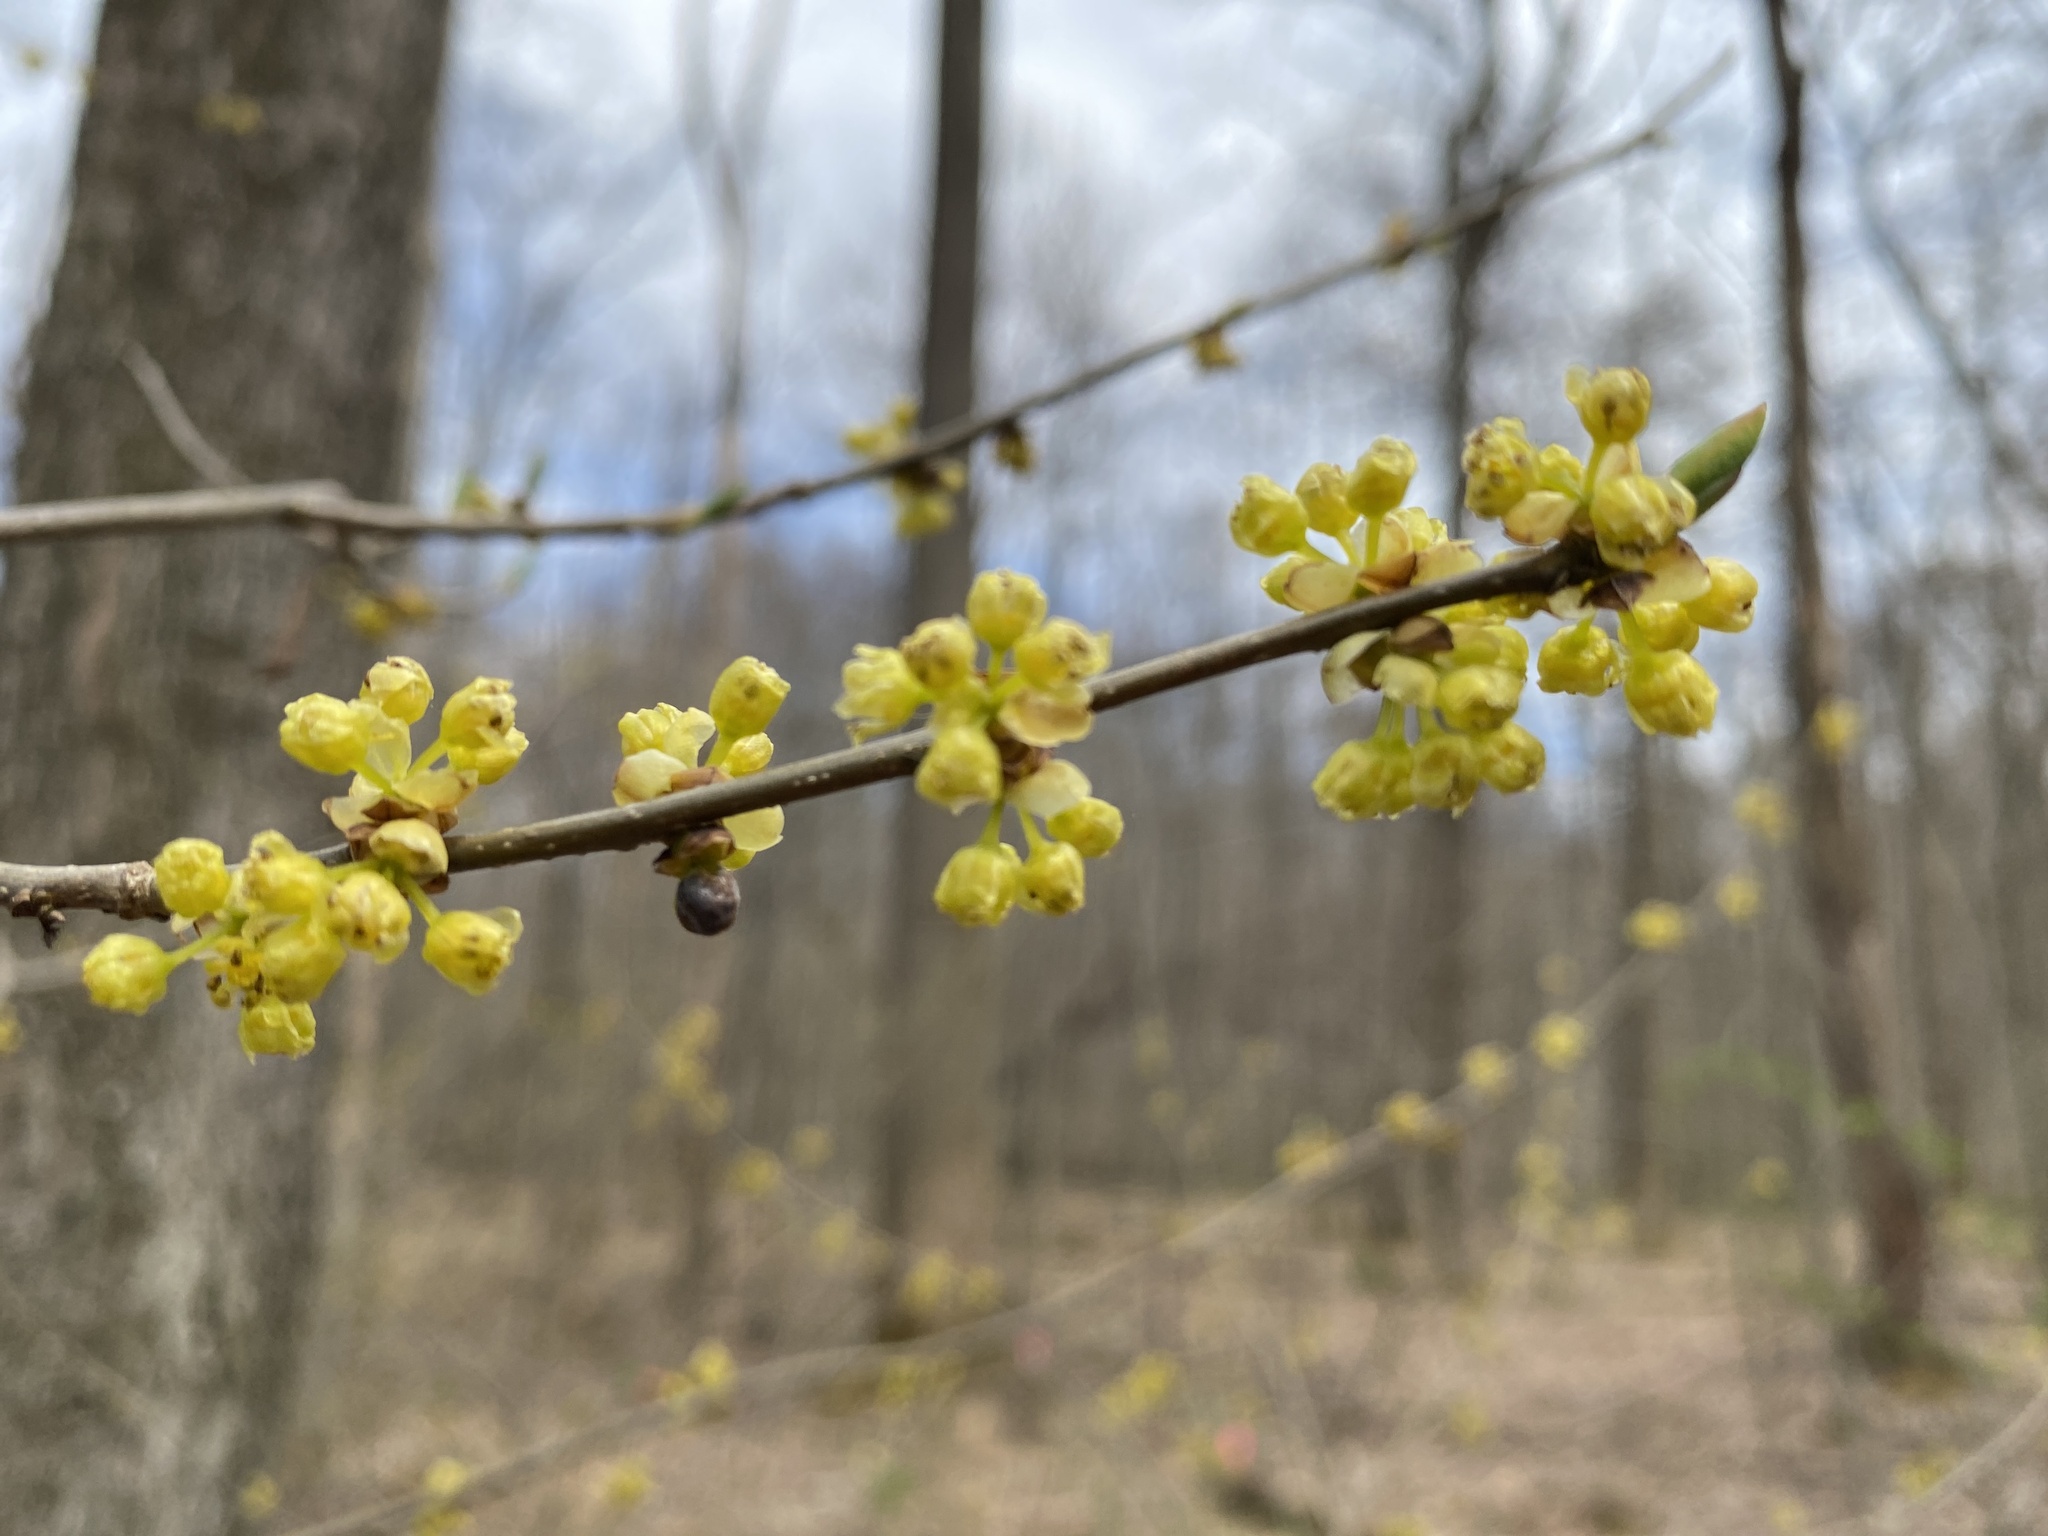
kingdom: Plantae
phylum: Tracheophyta
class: Magnoliopsida
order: Laurales
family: Lauraceae
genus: Lindera
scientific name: Lindera benzoin
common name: Spicebush
